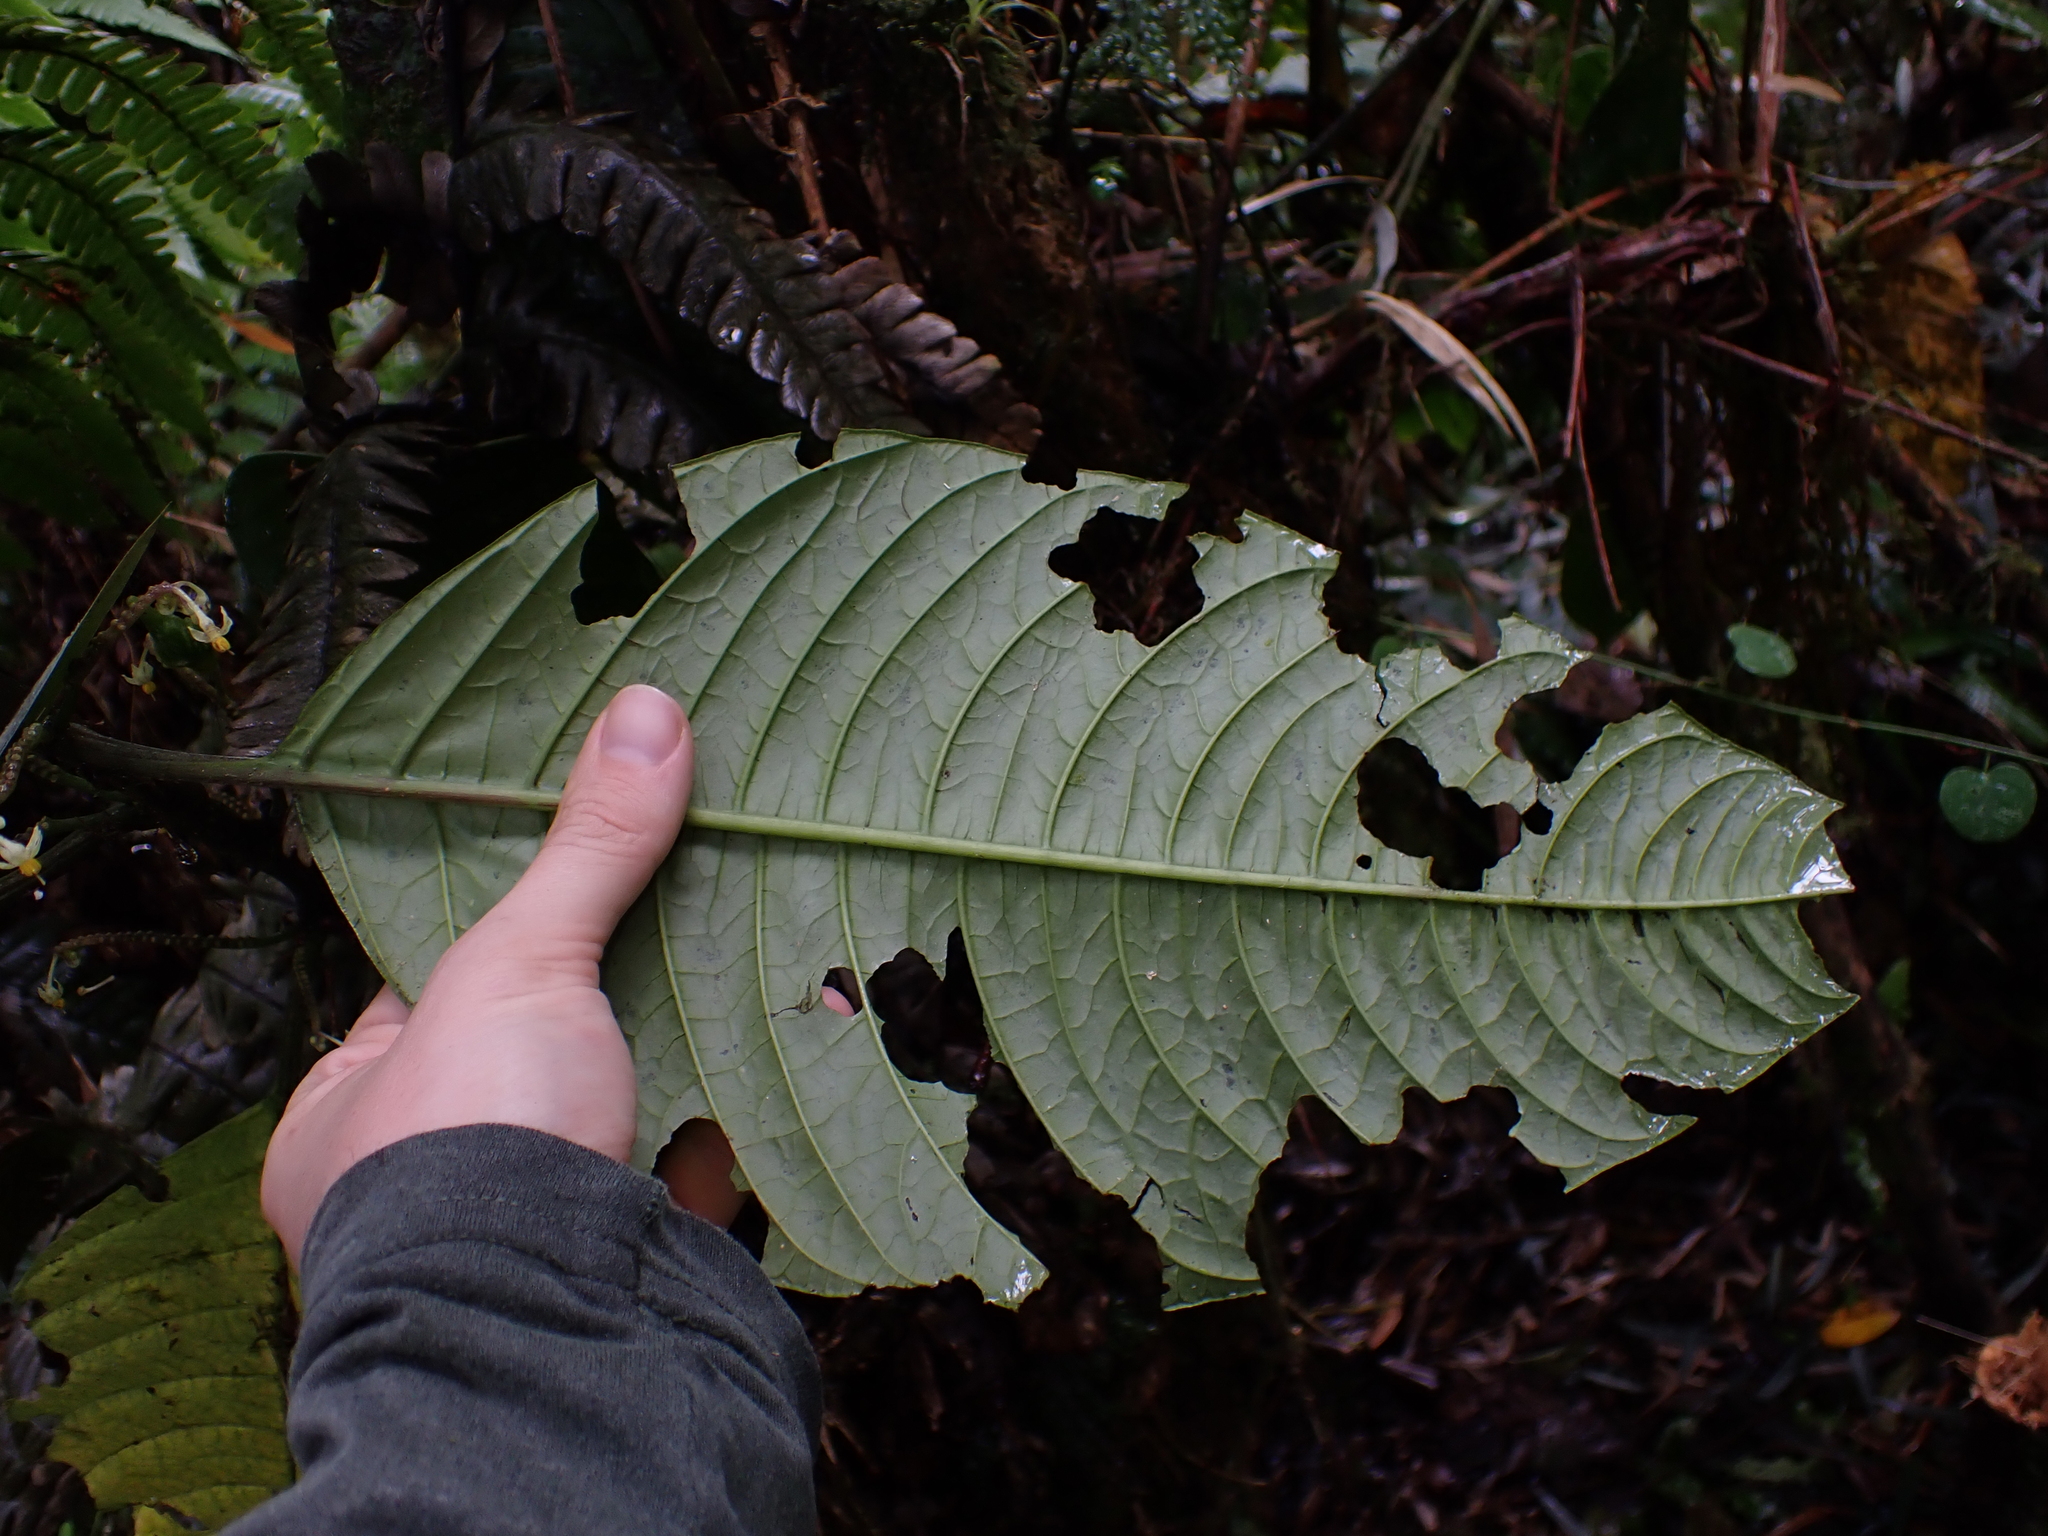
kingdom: Plantae
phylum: Tracheophyta
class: Magnoliopsida
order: Solanales
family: Solanaceae
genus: Solanum
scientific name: Solanum anceps
